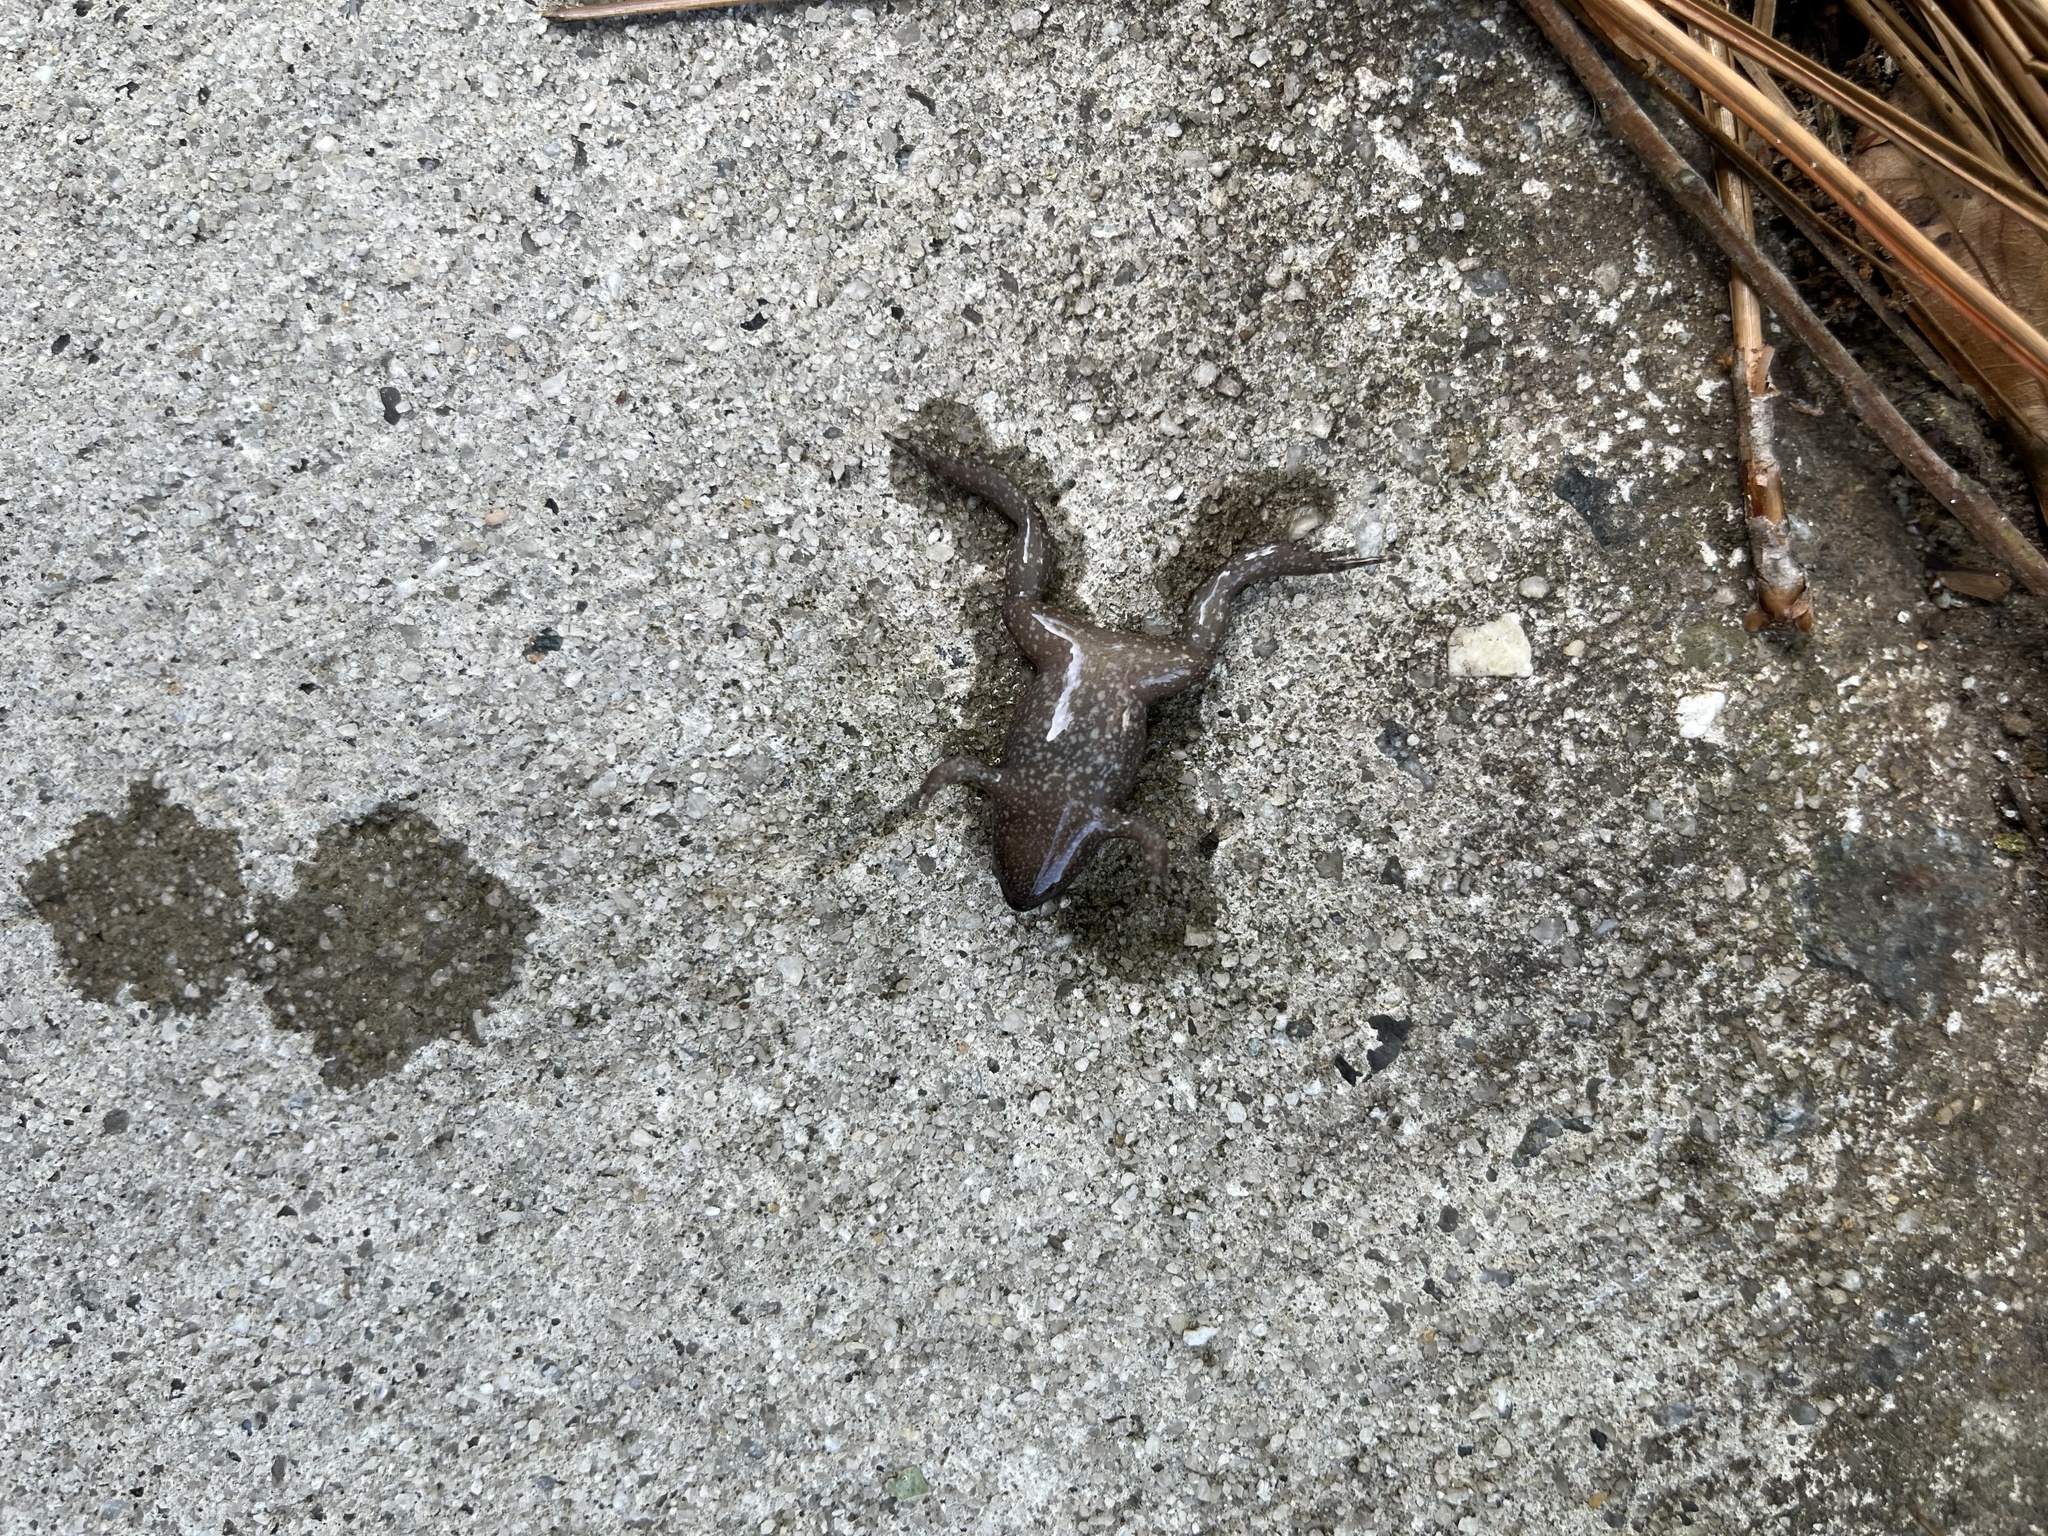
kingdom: Animalia
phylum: Chordata
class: Amphibia
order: Anura
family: Microhylidae
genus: Gastrophryne
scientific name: Gastrophryne carolinensis
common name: Eastern narrowmouth toad
